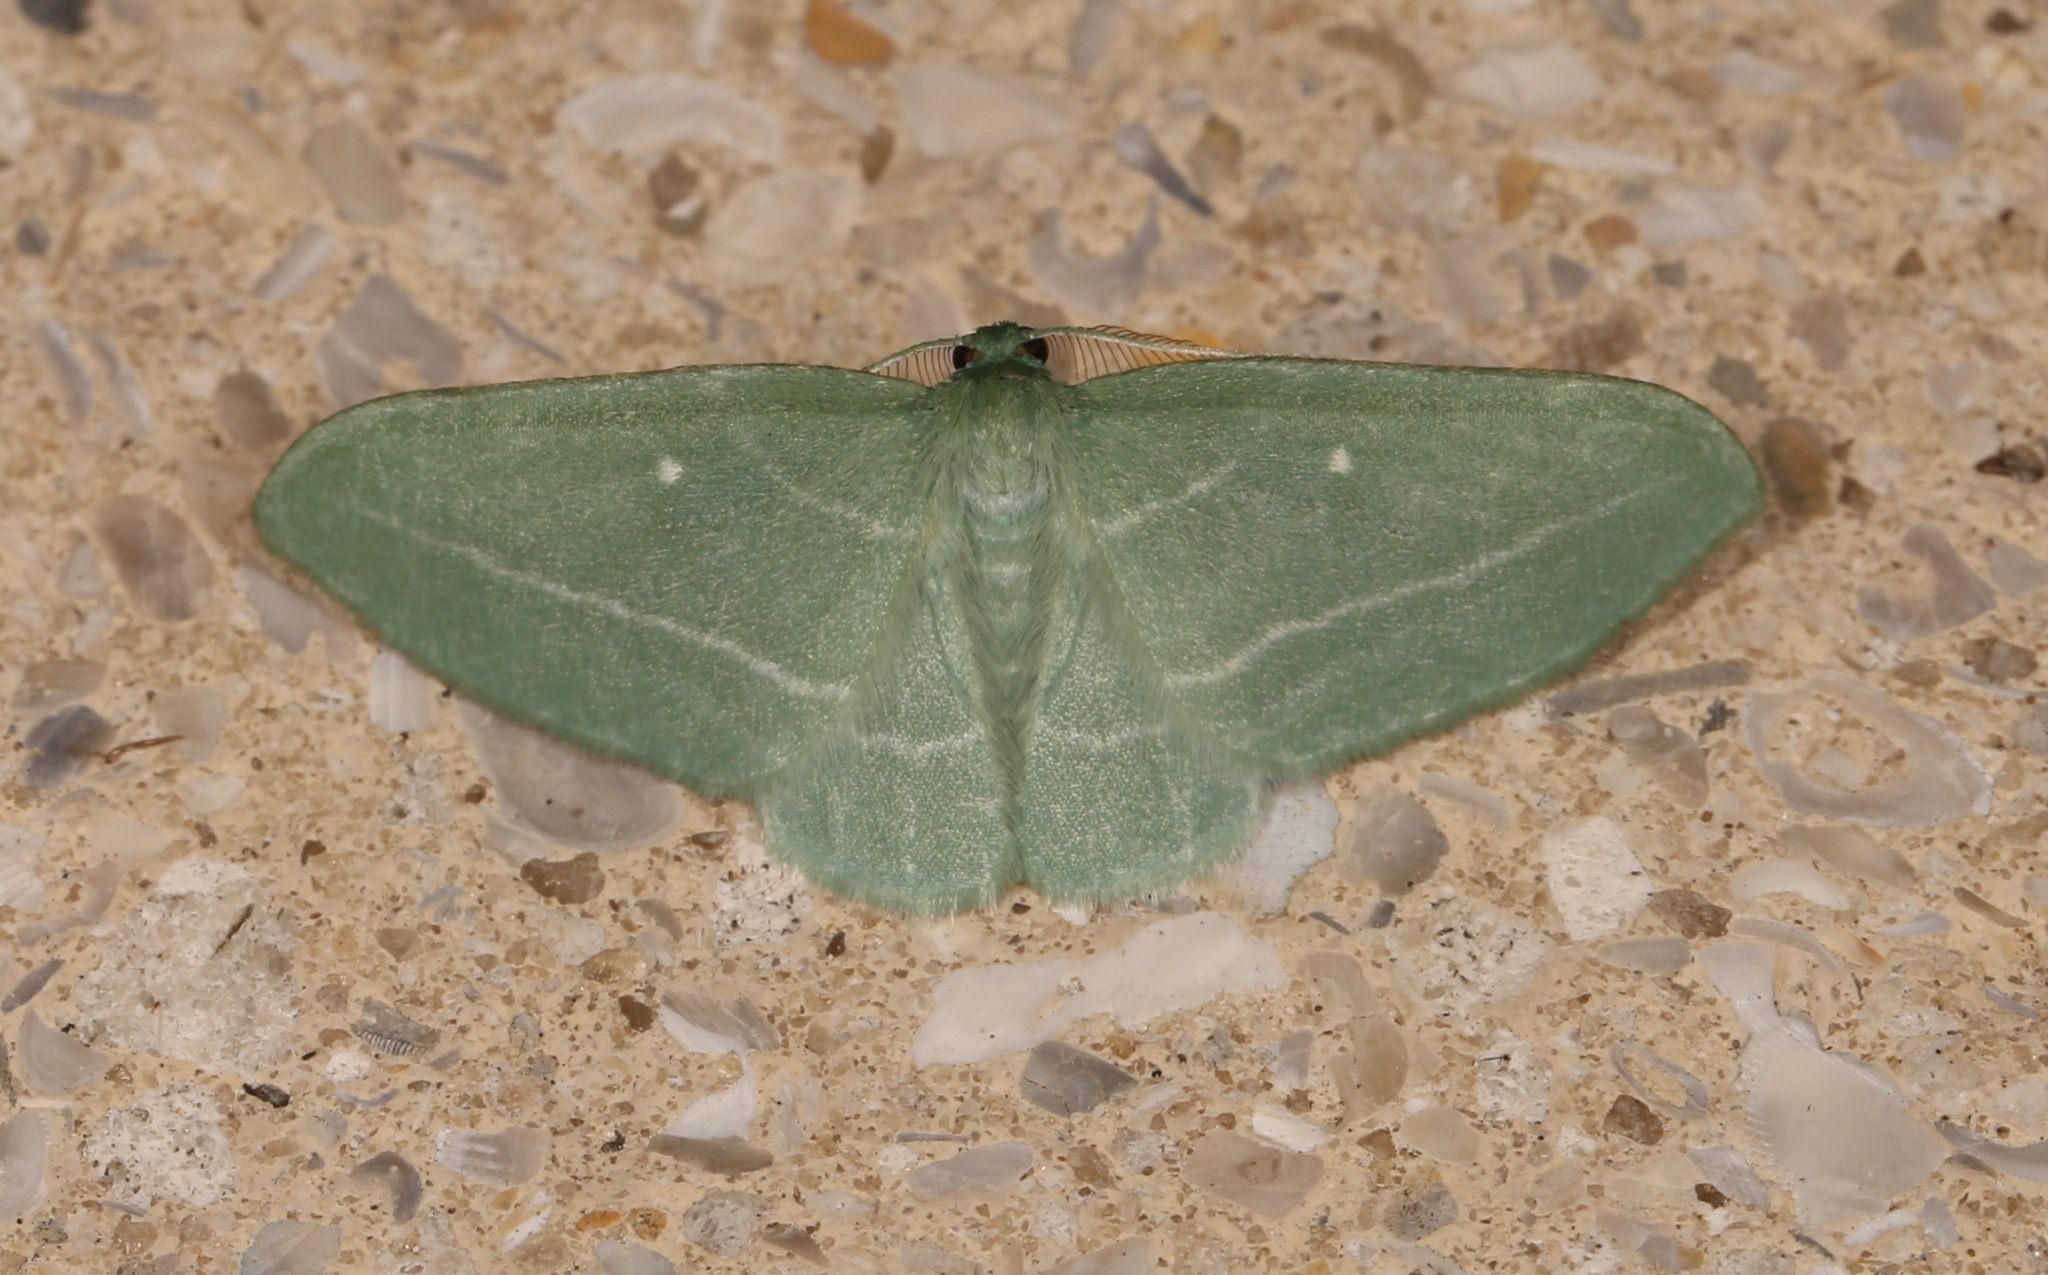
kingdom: Animalia
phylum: Arthropoda
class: Insecta
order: Lepidoptera
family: Geometridae
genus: Dyspteris
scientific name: Dyspteris abortivaria
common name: Bad-wing
